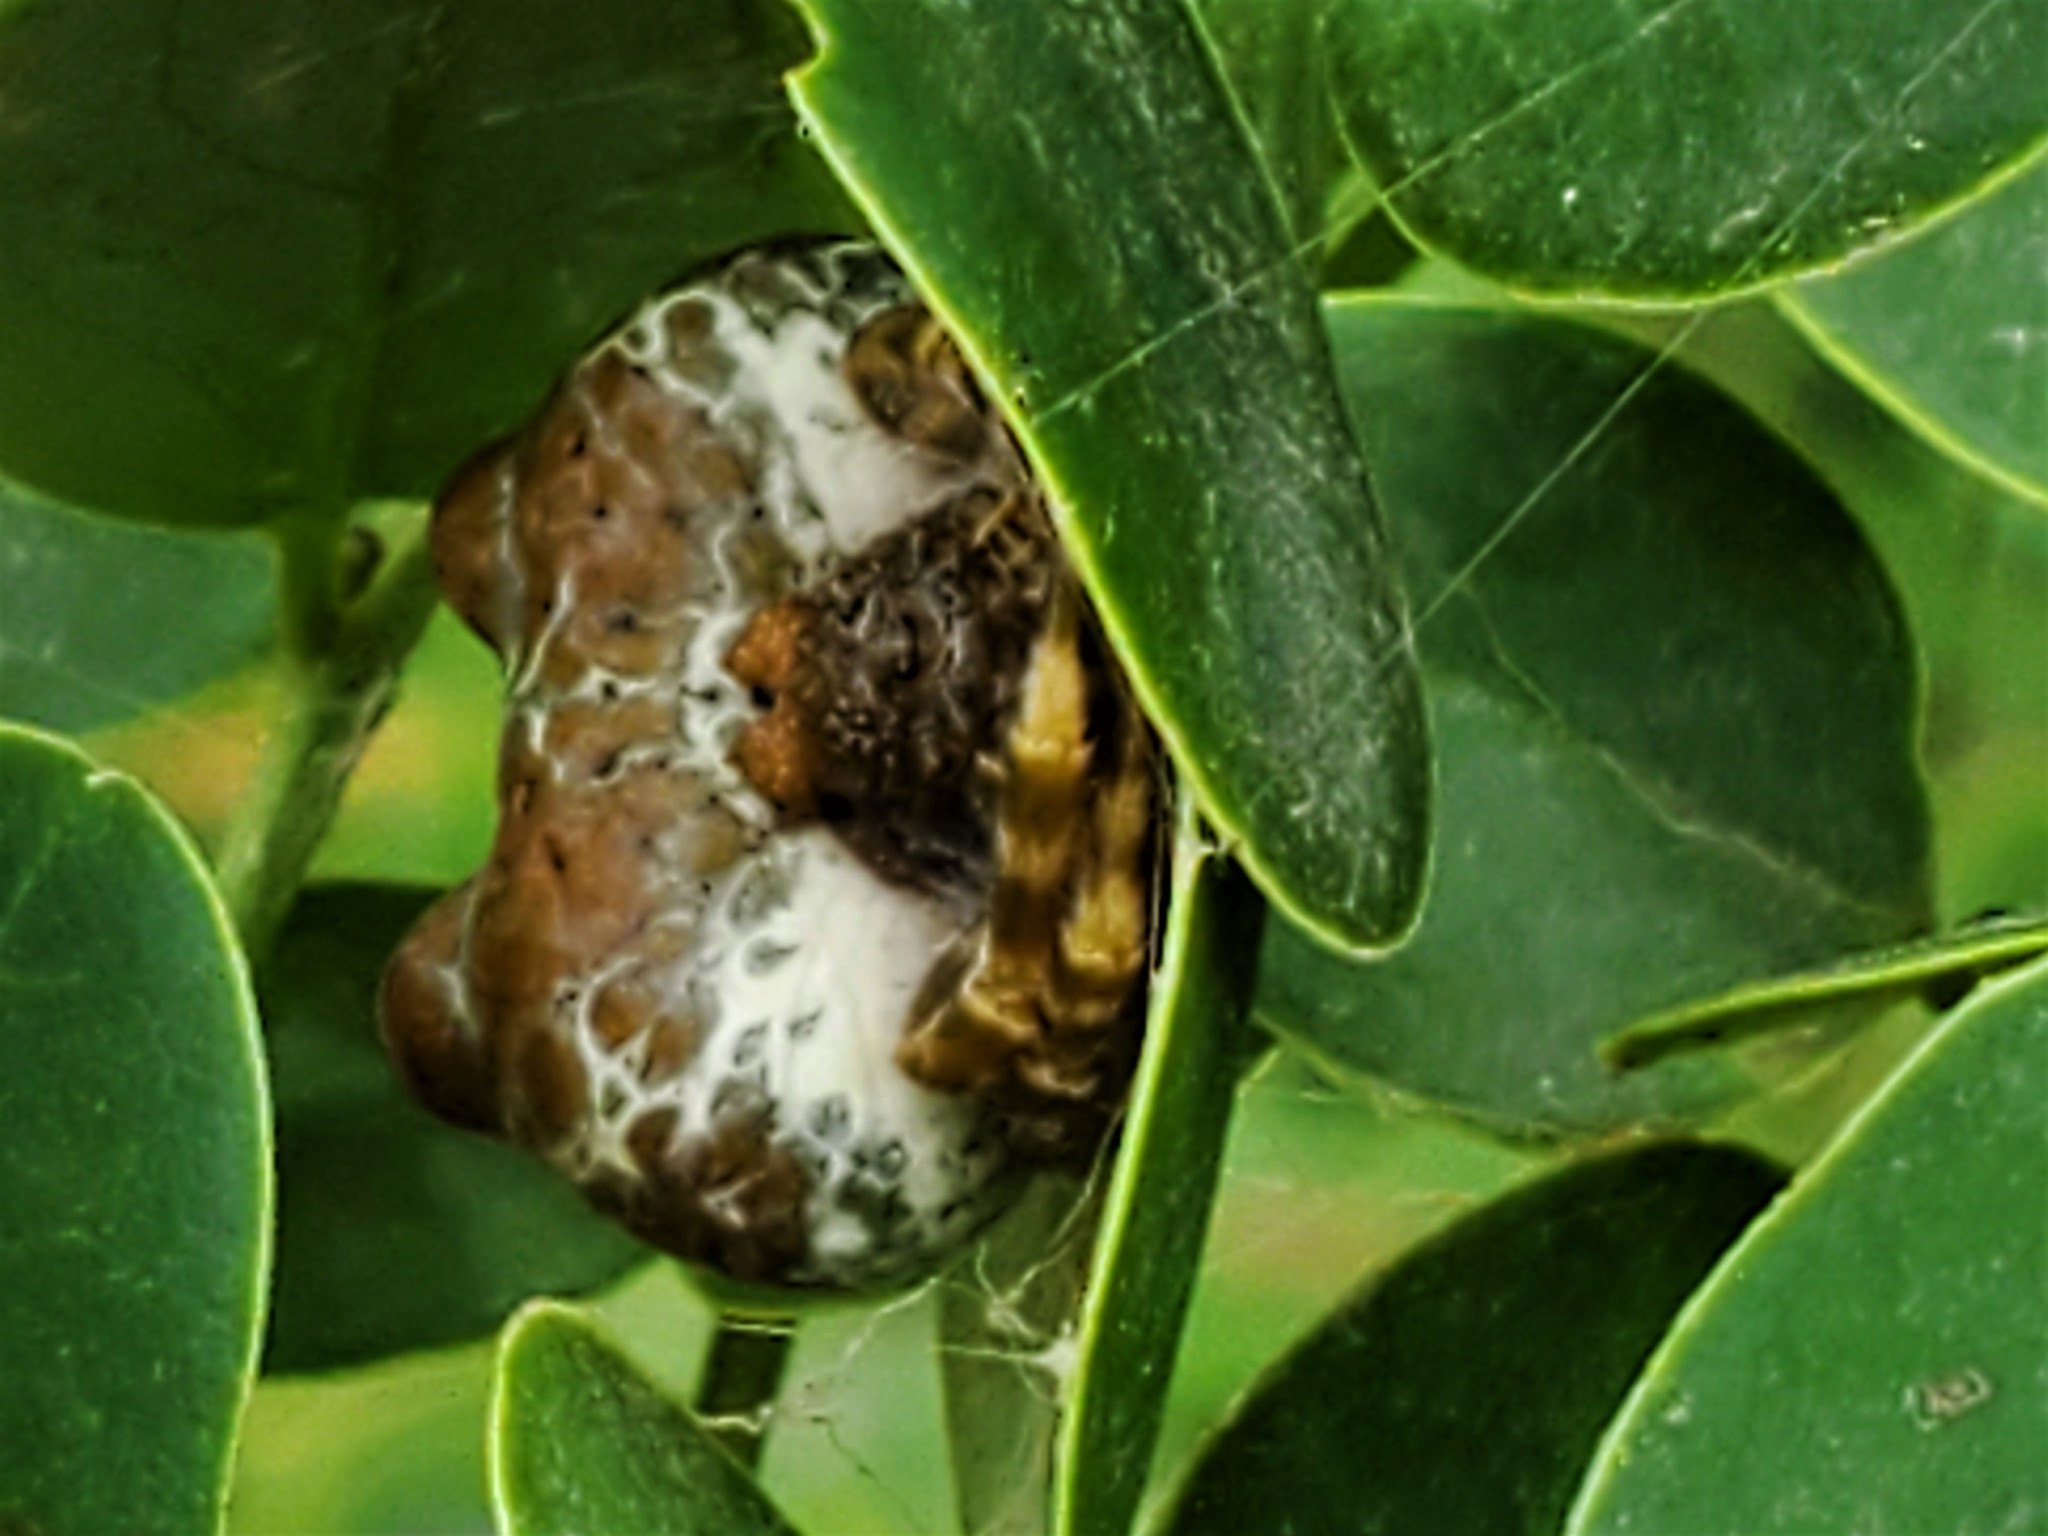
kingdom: Animalia
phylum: Arthropoda
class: Arachnida
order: Araneae
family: Araneidae
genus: Mastophora
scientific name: Mastophora cornigera
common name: Orb weavers
